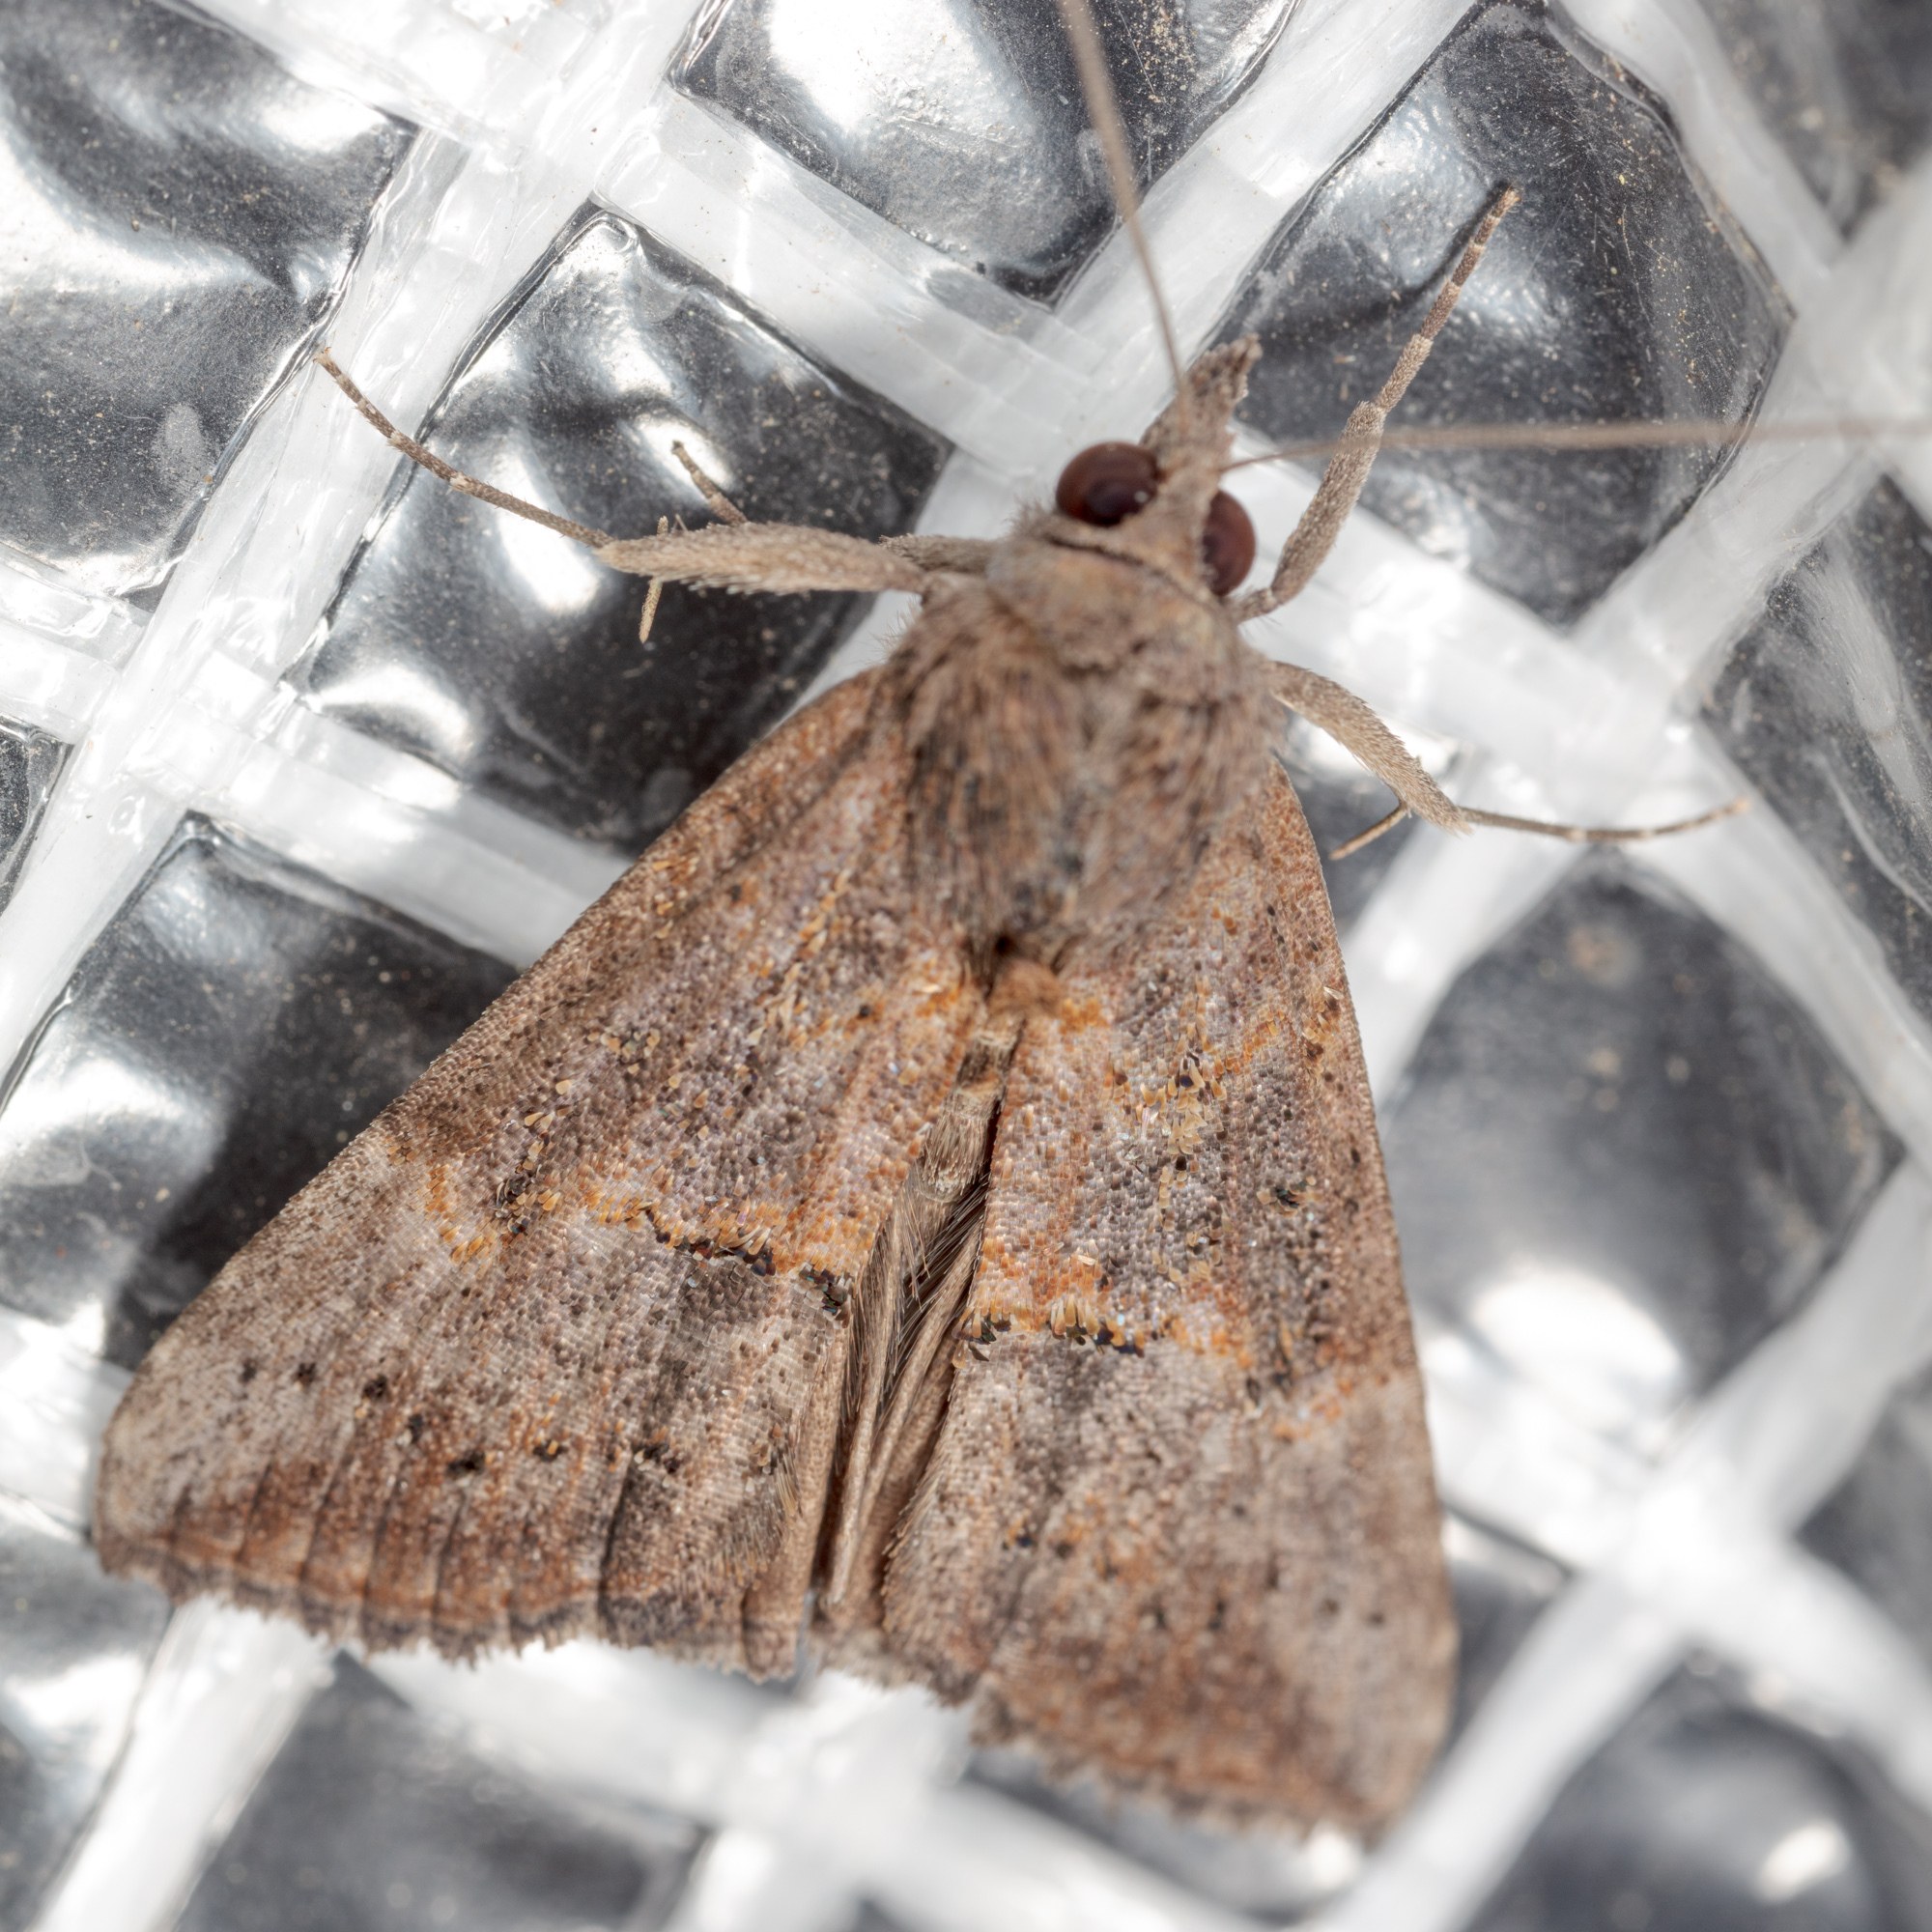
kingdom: Animalia
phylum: Arthropoda
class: Insecta
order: Lepidoptera
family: Erebidae
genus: Hypena
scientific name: Hypena scabra
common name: Green cloverworm
